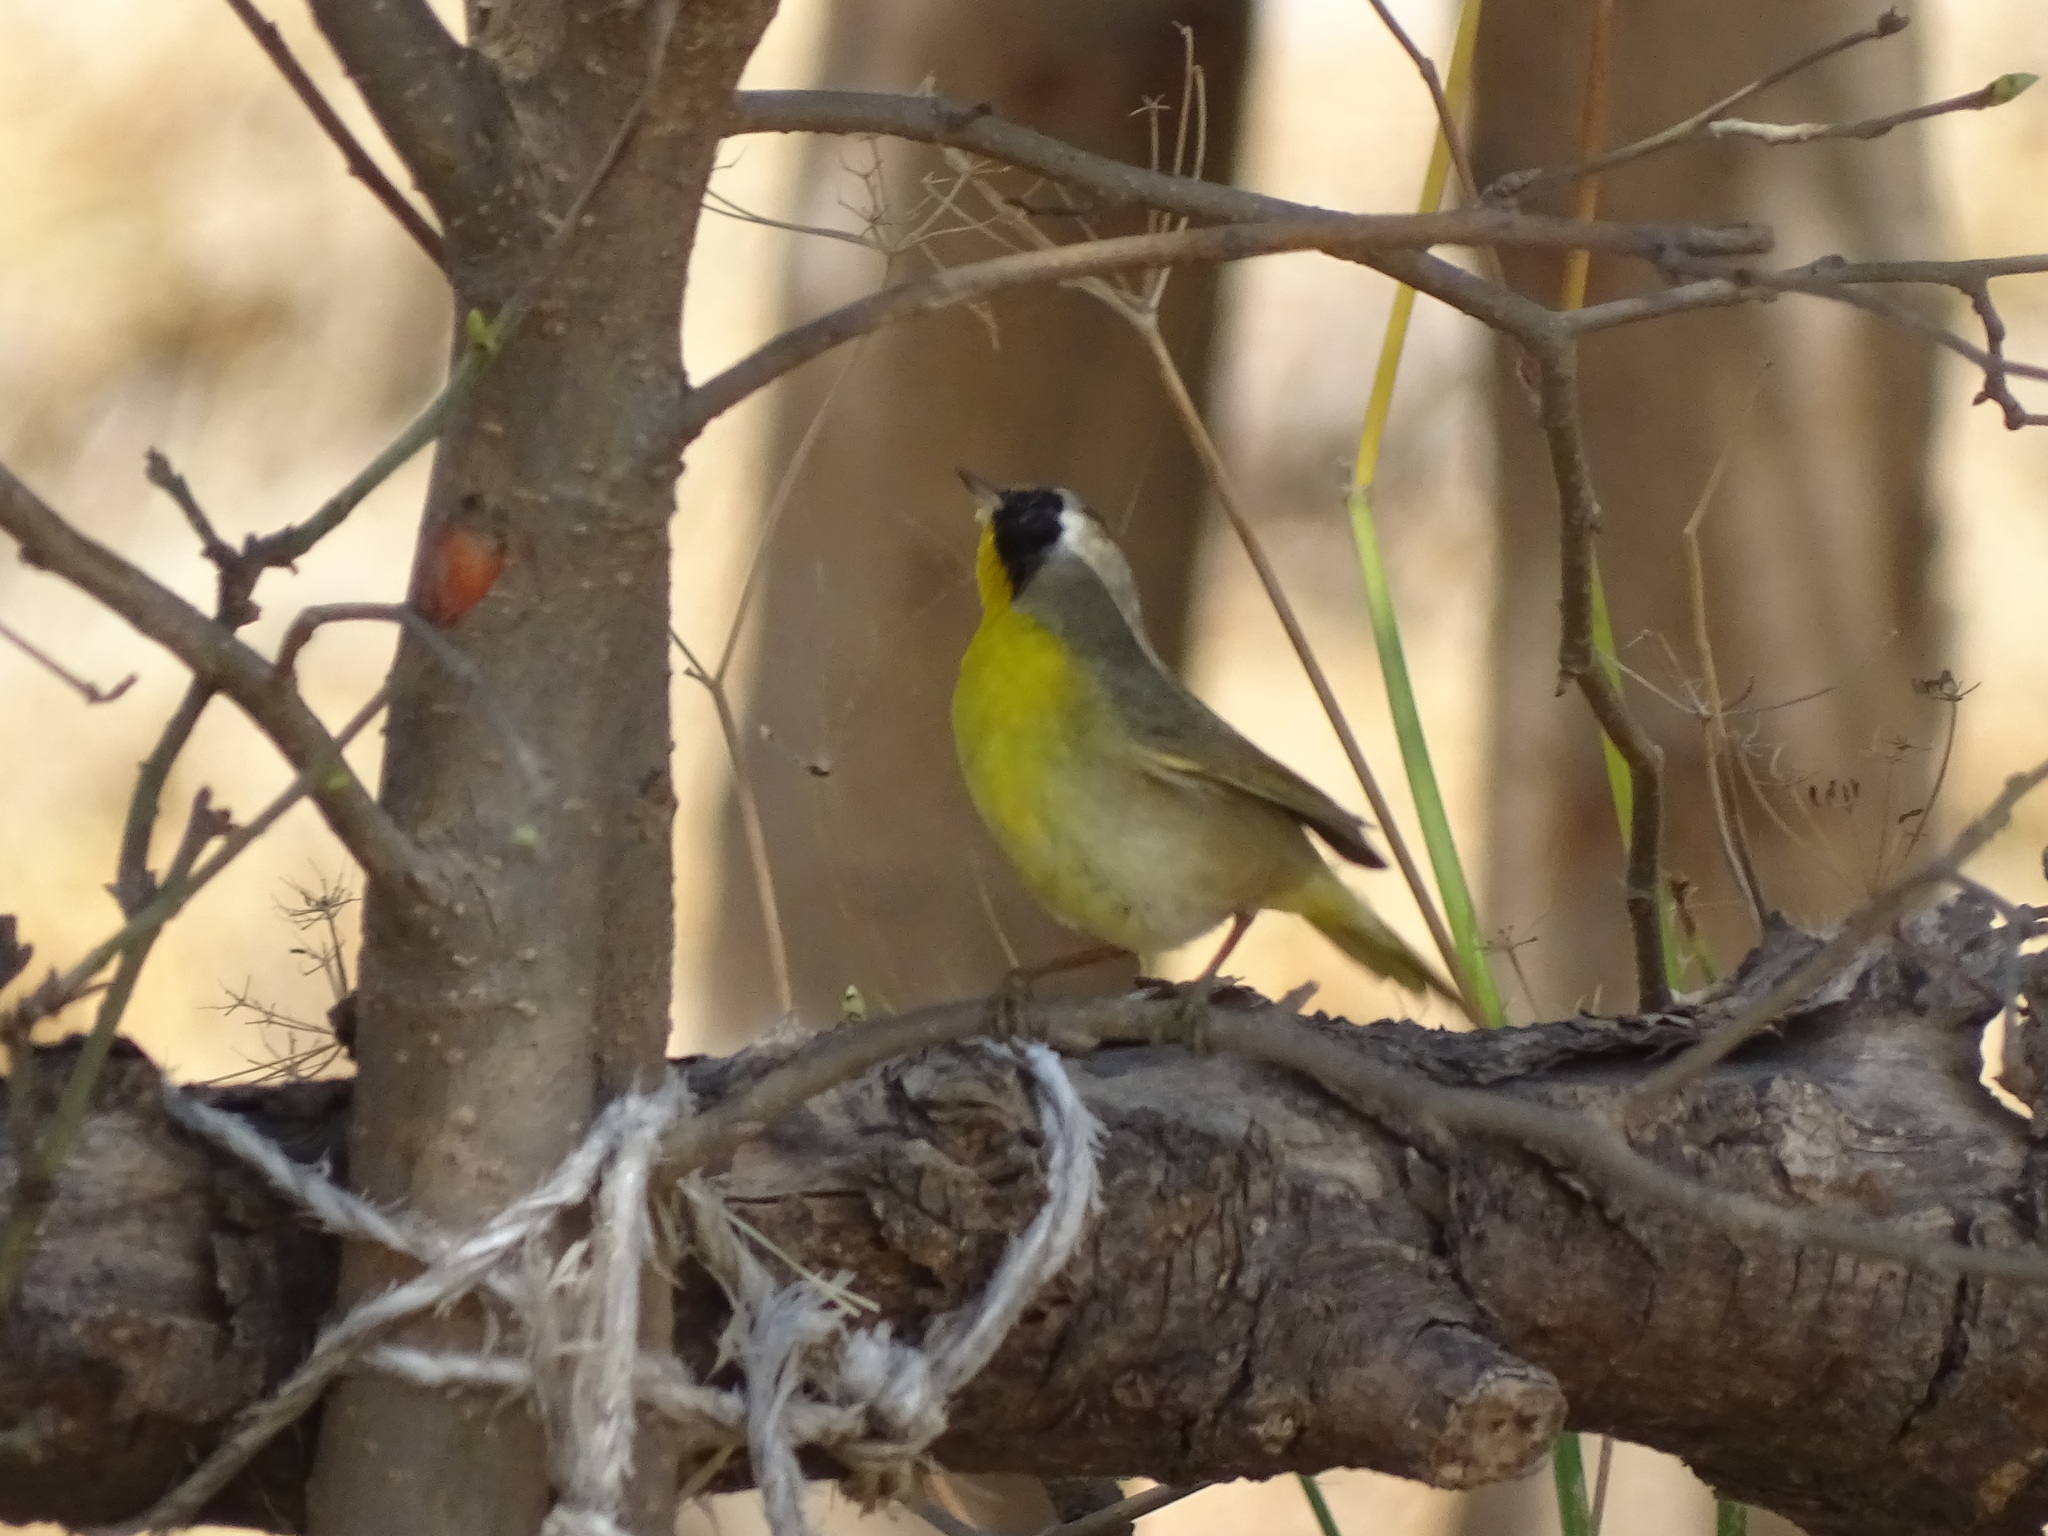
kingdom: Animalia
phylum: Chordata
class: Aves
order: Passeriformes
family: Parulidae
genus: Geothlypis
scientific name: Geothlypis trichas
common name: Common yellowthroat
